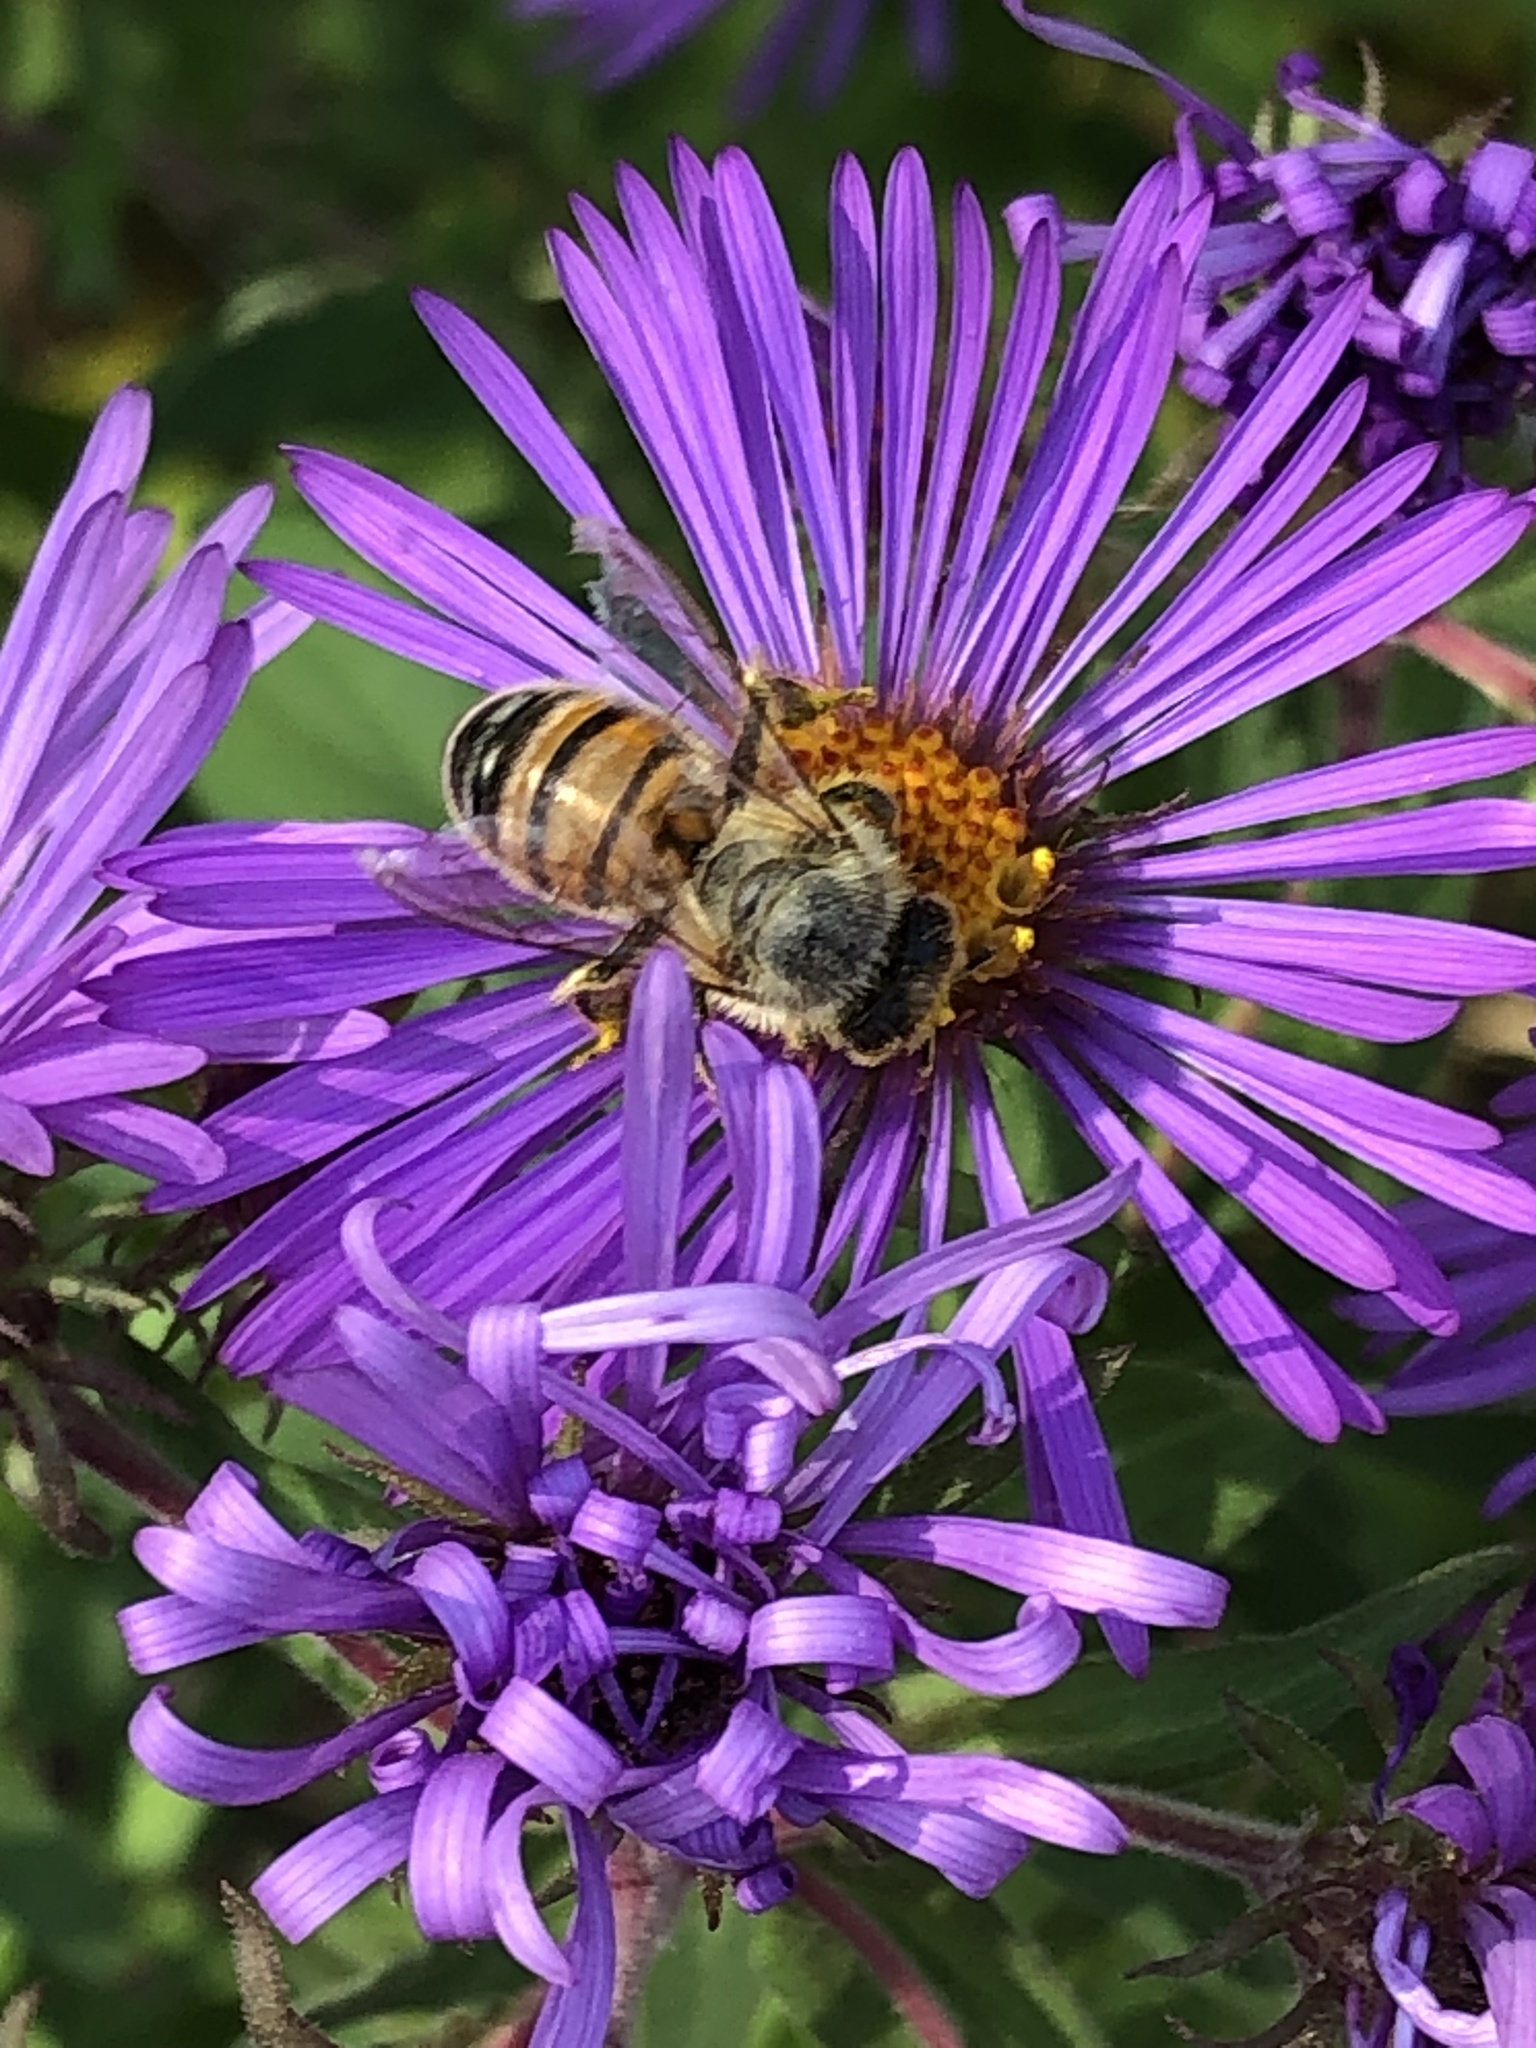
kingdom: Animalia
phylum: Arthropoda
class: Insecta
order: Hymenoptera
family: Apidae
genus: Apis
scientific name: Apis mellifera
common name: Honey bee
